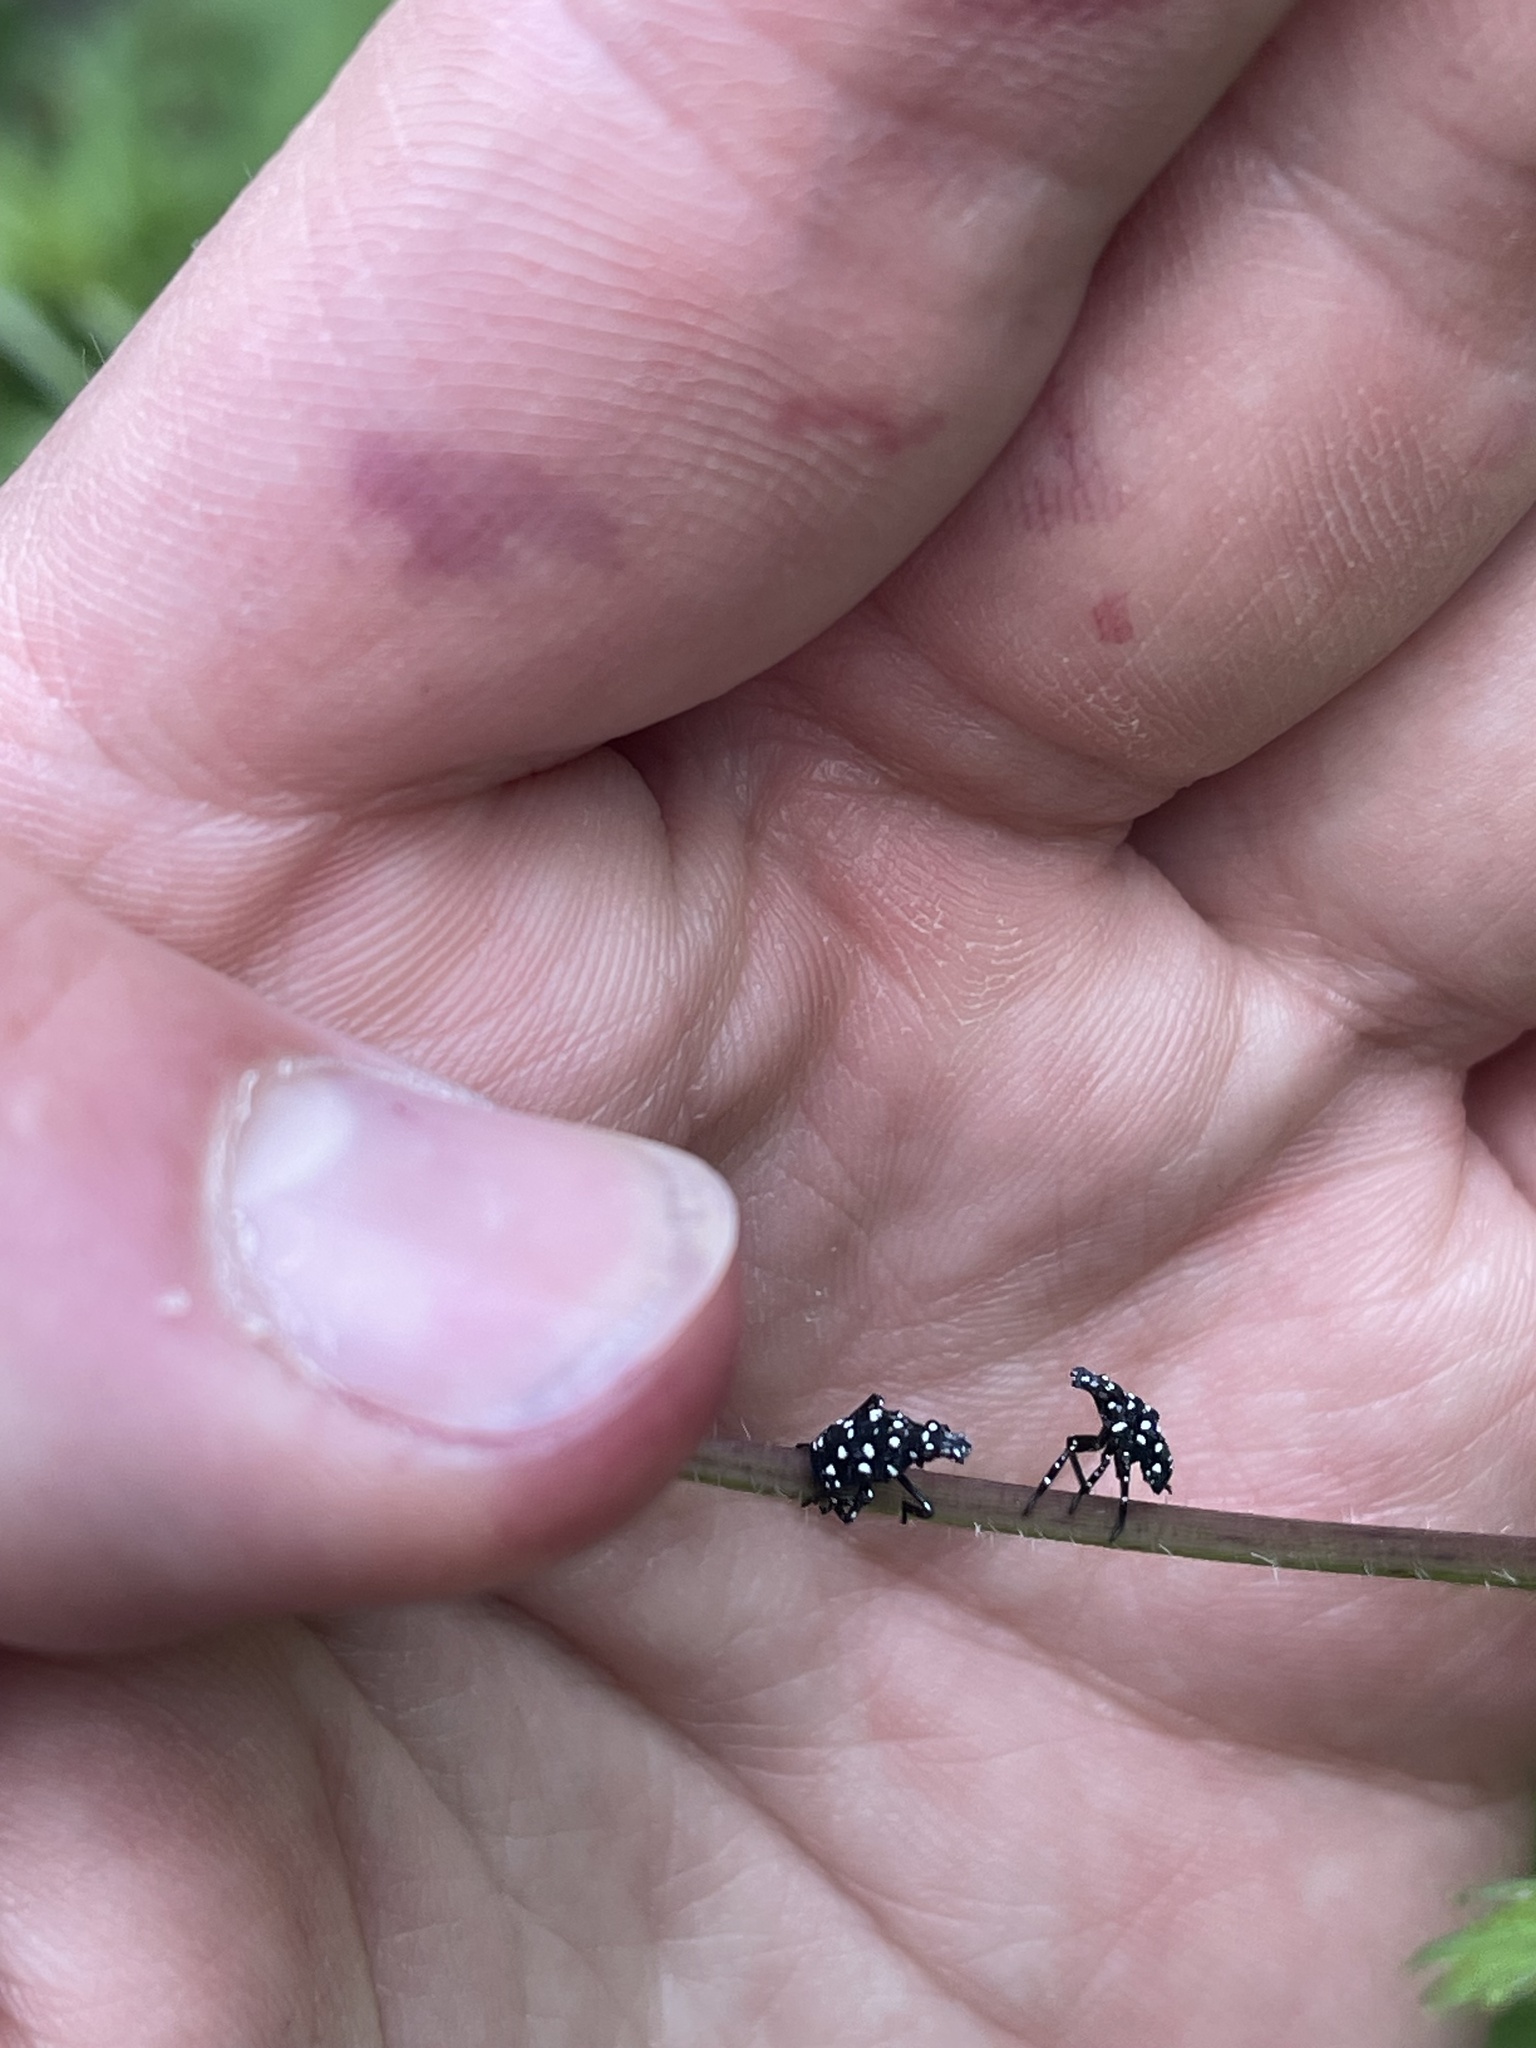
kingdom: Animalia
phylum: Arthropoda
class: Insecta
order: Hemiptera
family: Fulgoridae
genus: Lycorma
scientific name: Lycorma delicatula
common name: Spotted lanternfly
